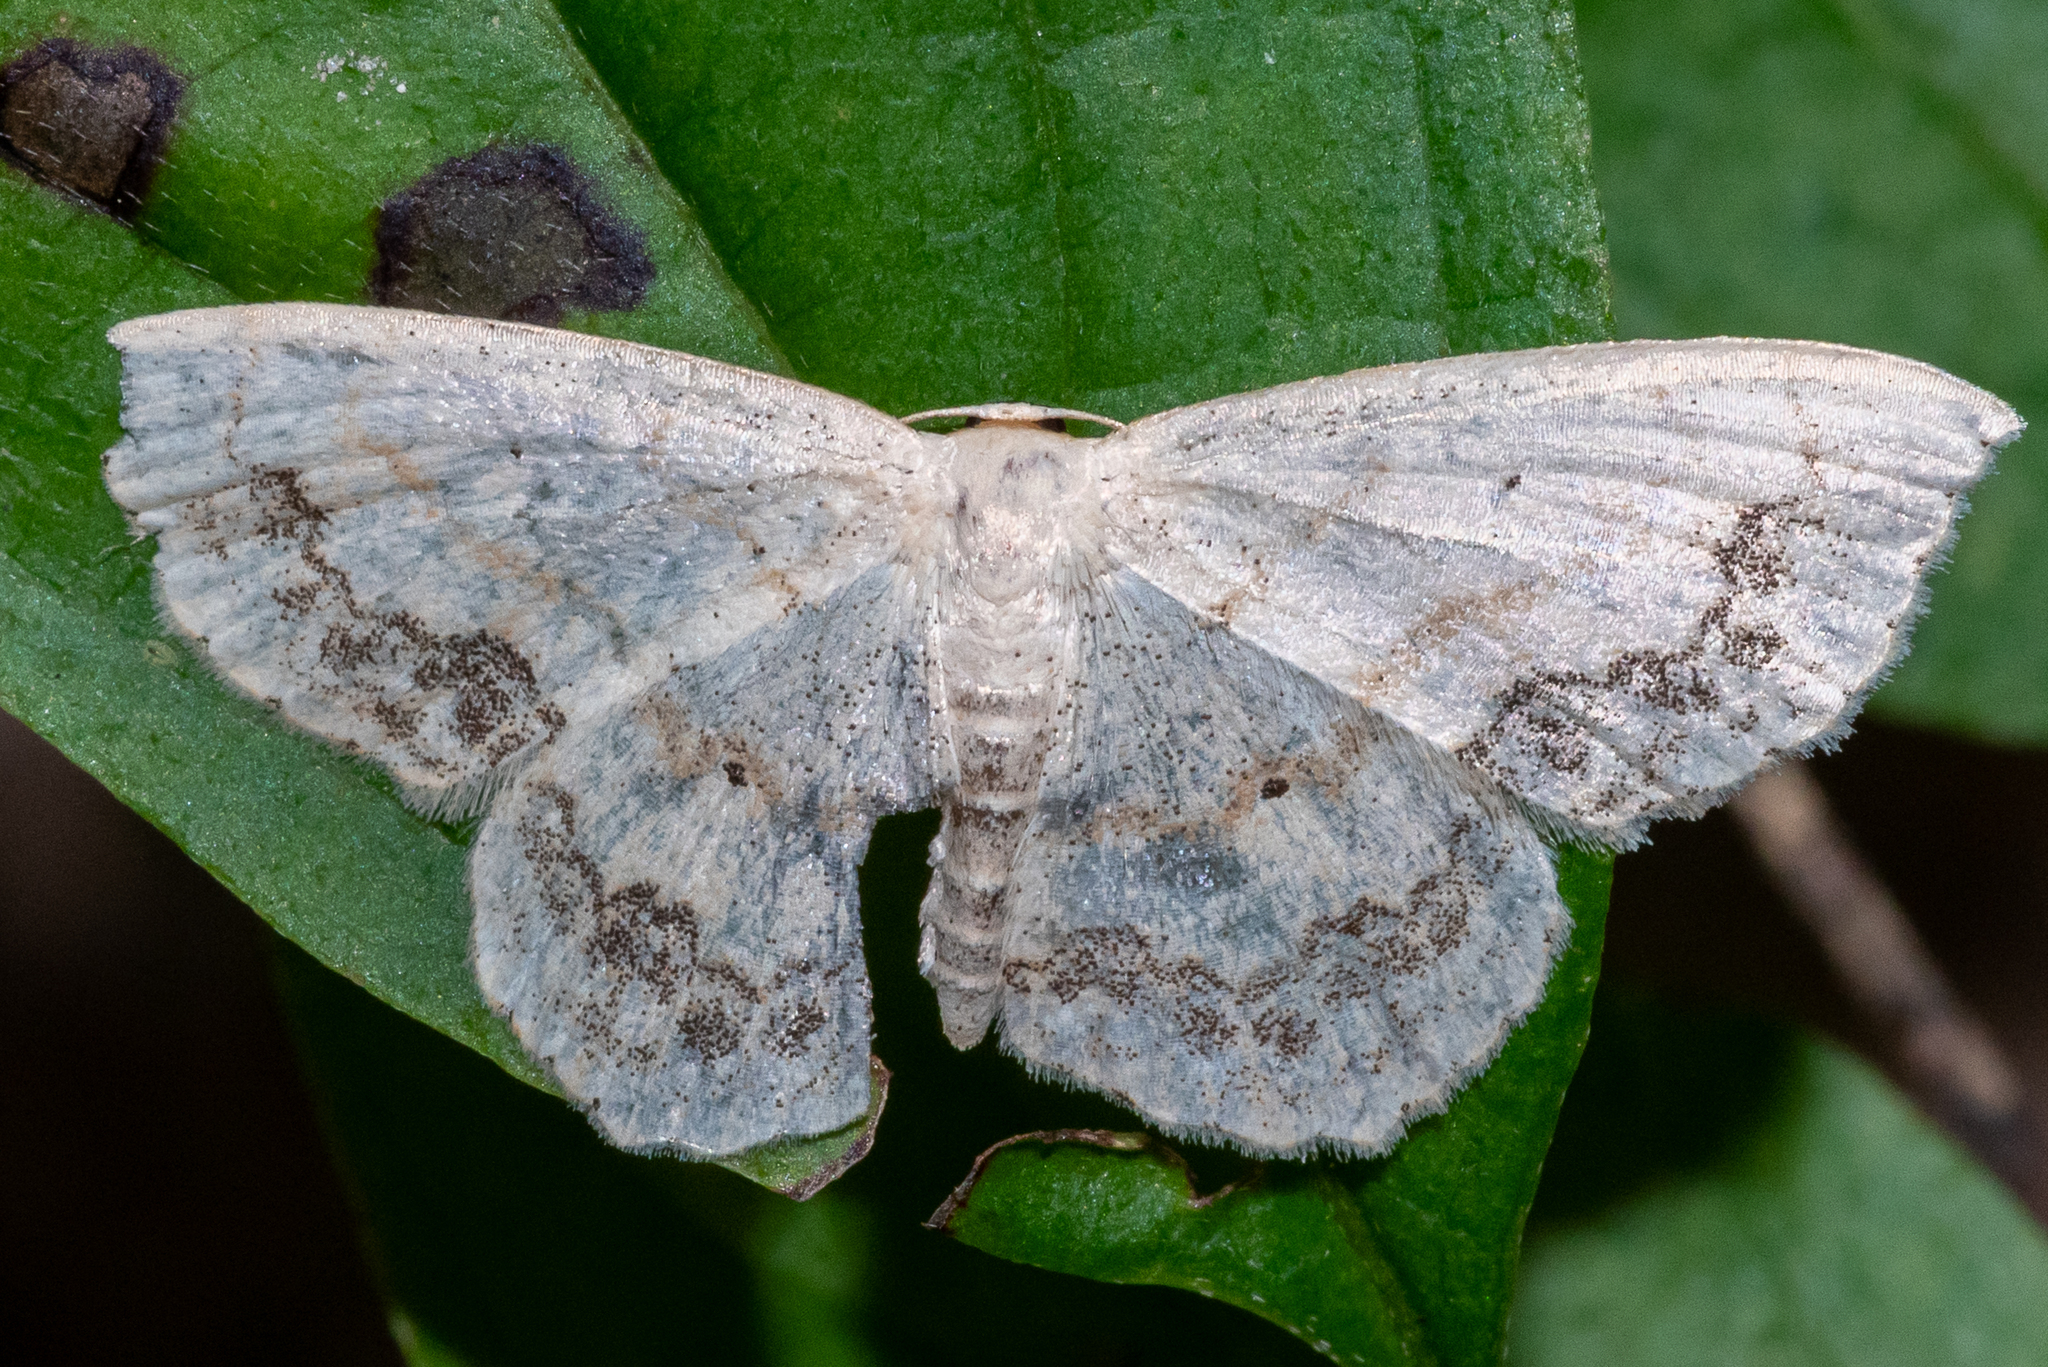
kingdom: Animalia
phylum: Arthropoda
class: Insecta
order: Lepidoptera
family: Geometridae
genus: Scopula
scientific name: Scopula limboundata
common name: Large lace border
